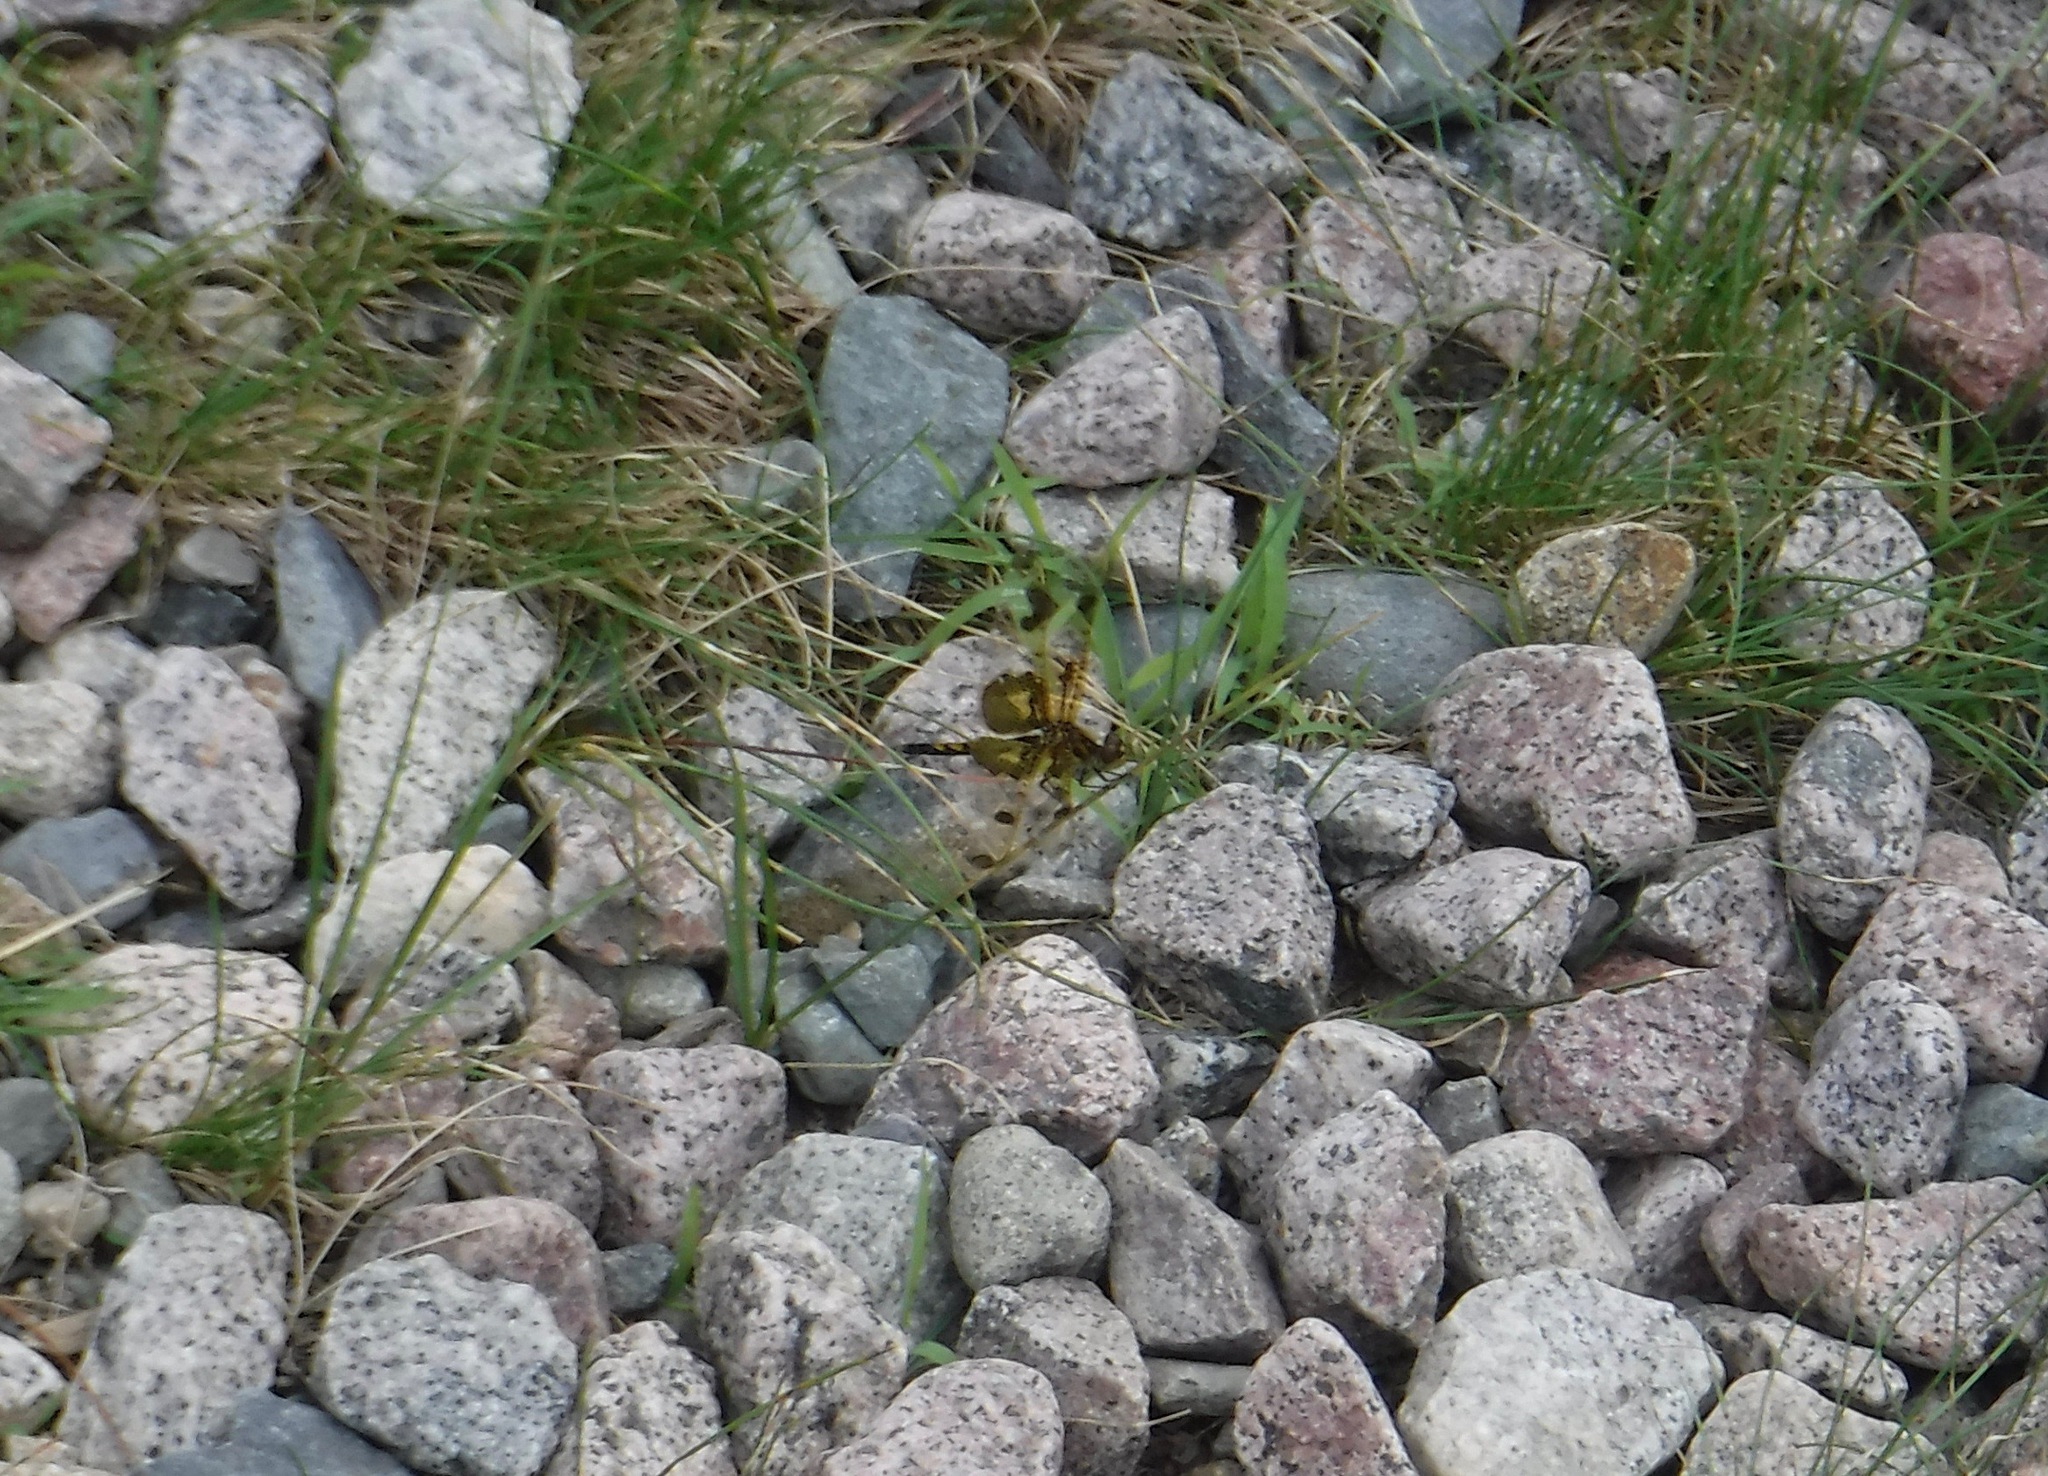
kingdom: Animalia
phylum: Arthropoda
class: Insecta
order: Odonata
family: Libellulidae
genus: Celithemis
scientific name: Celithemis elisa
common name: Calico pennant
